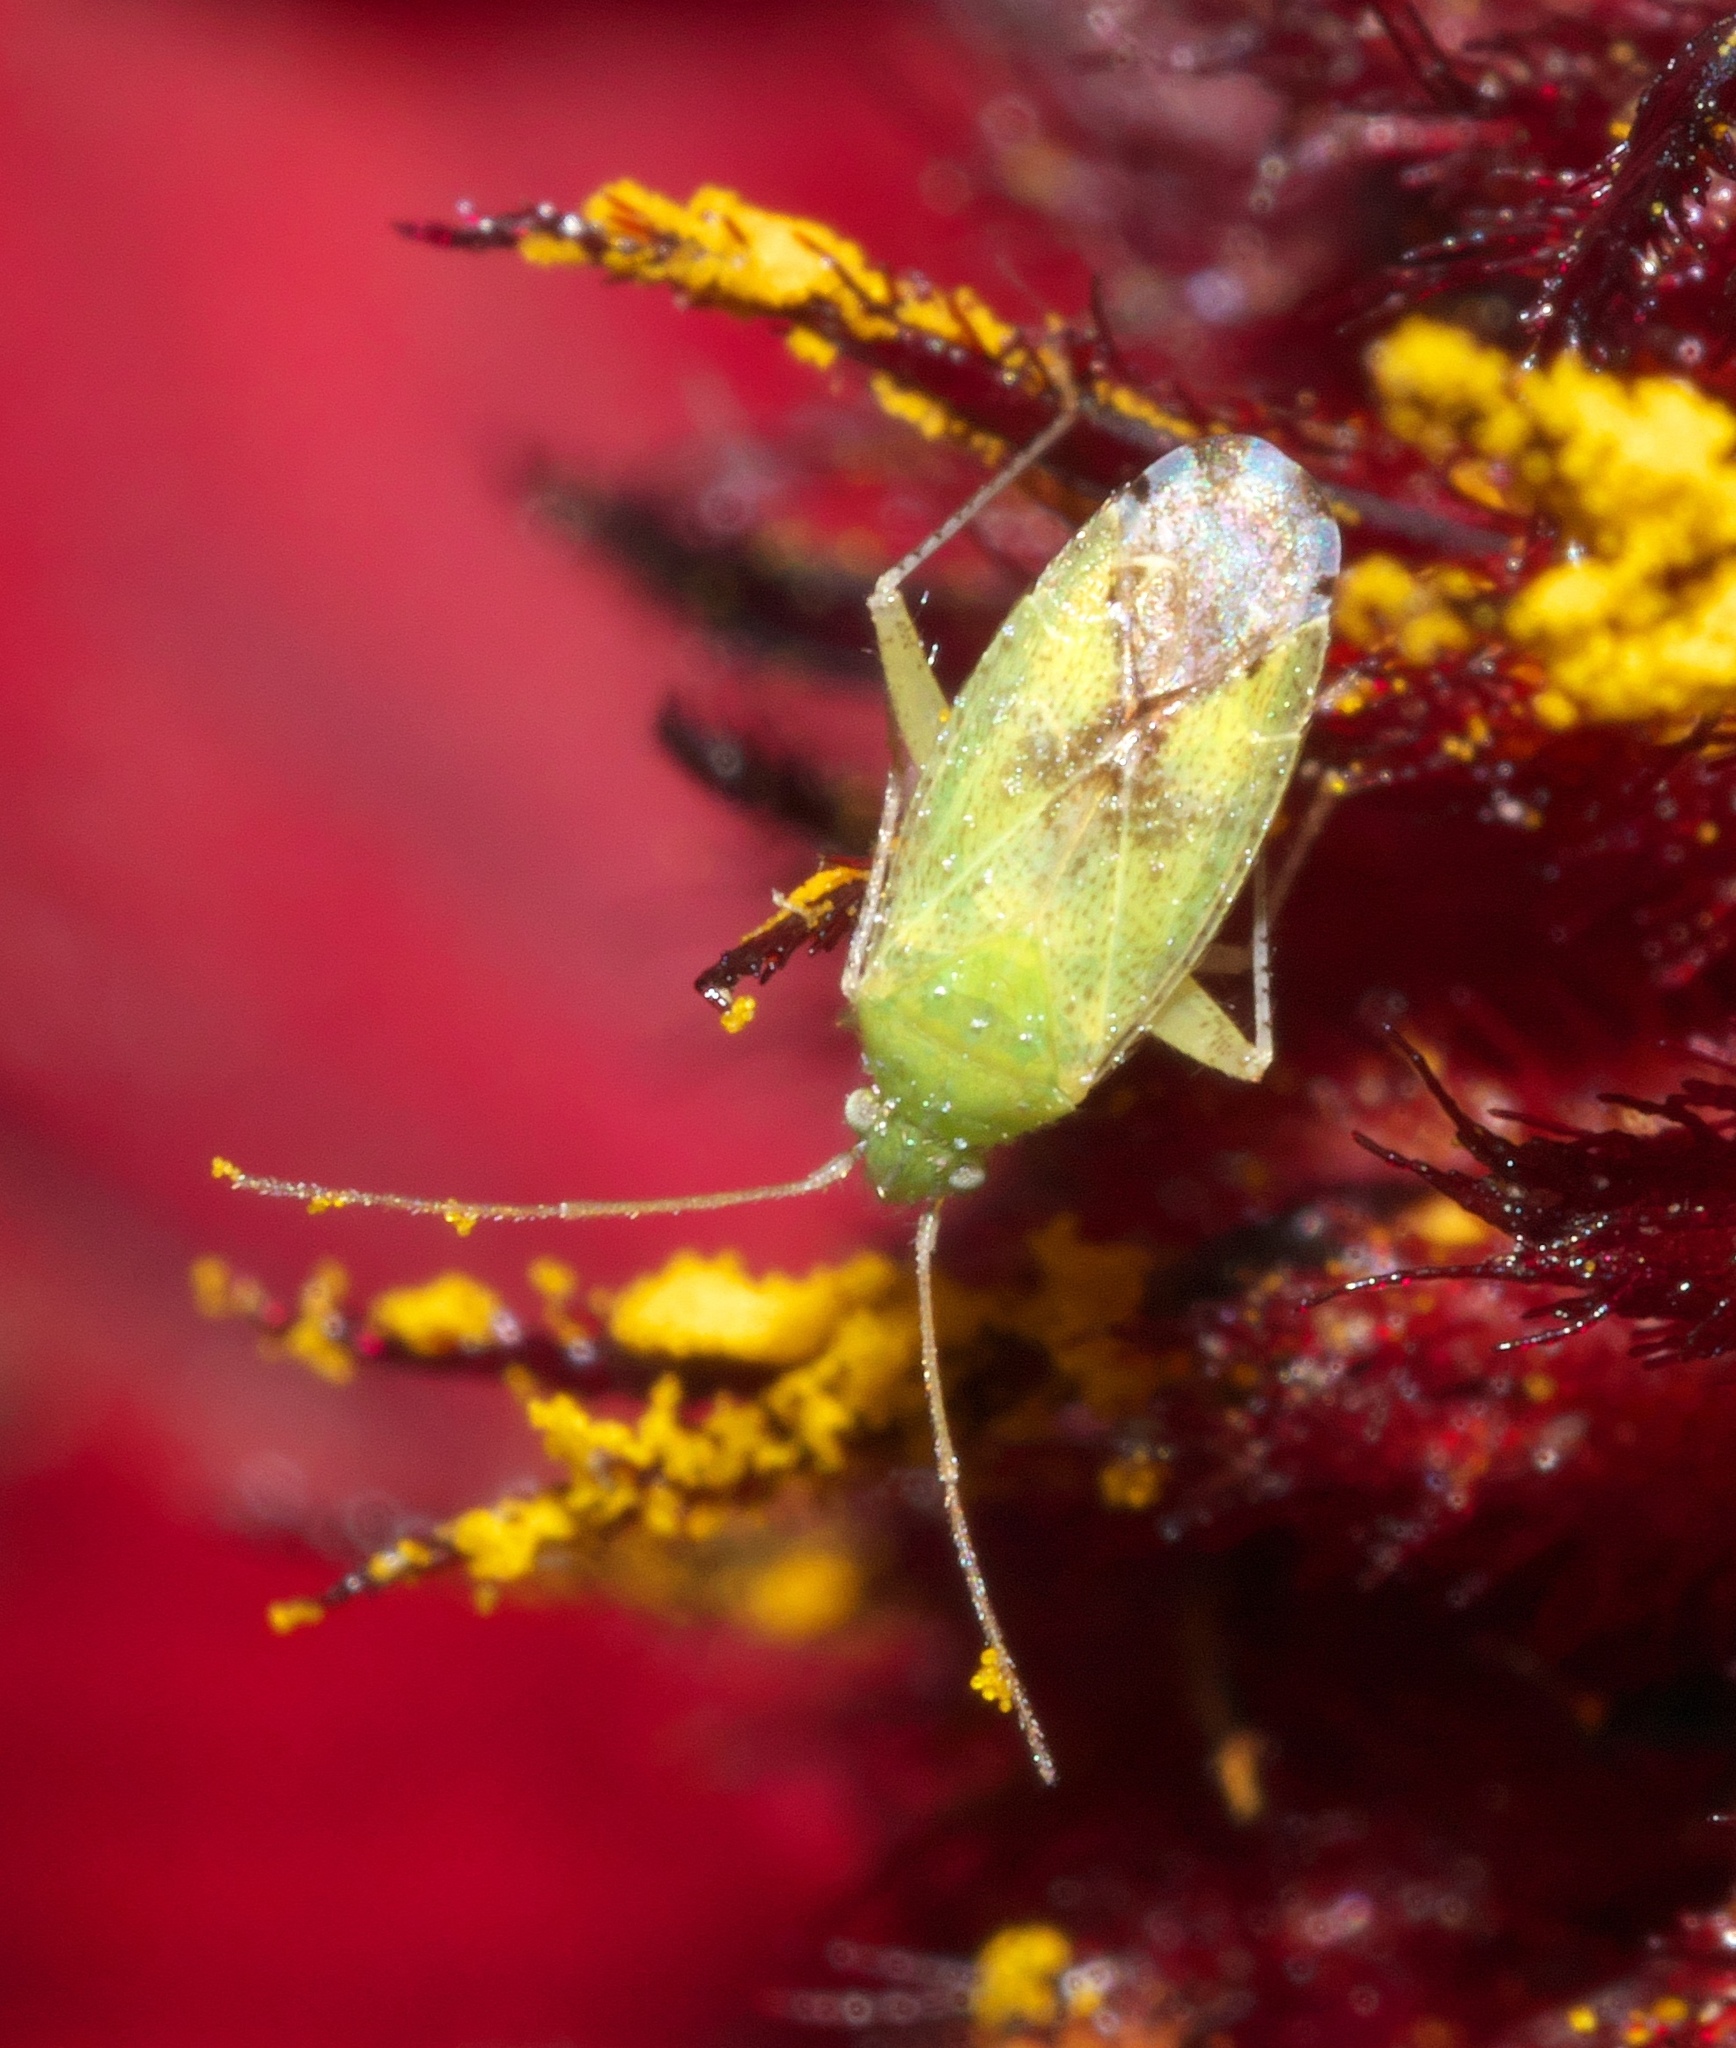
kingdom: Animalia
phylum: Arthropoda
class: Insecta
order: Hemiptera
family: Miridae
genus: Keltonia
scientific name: Keltonia tuckeri
